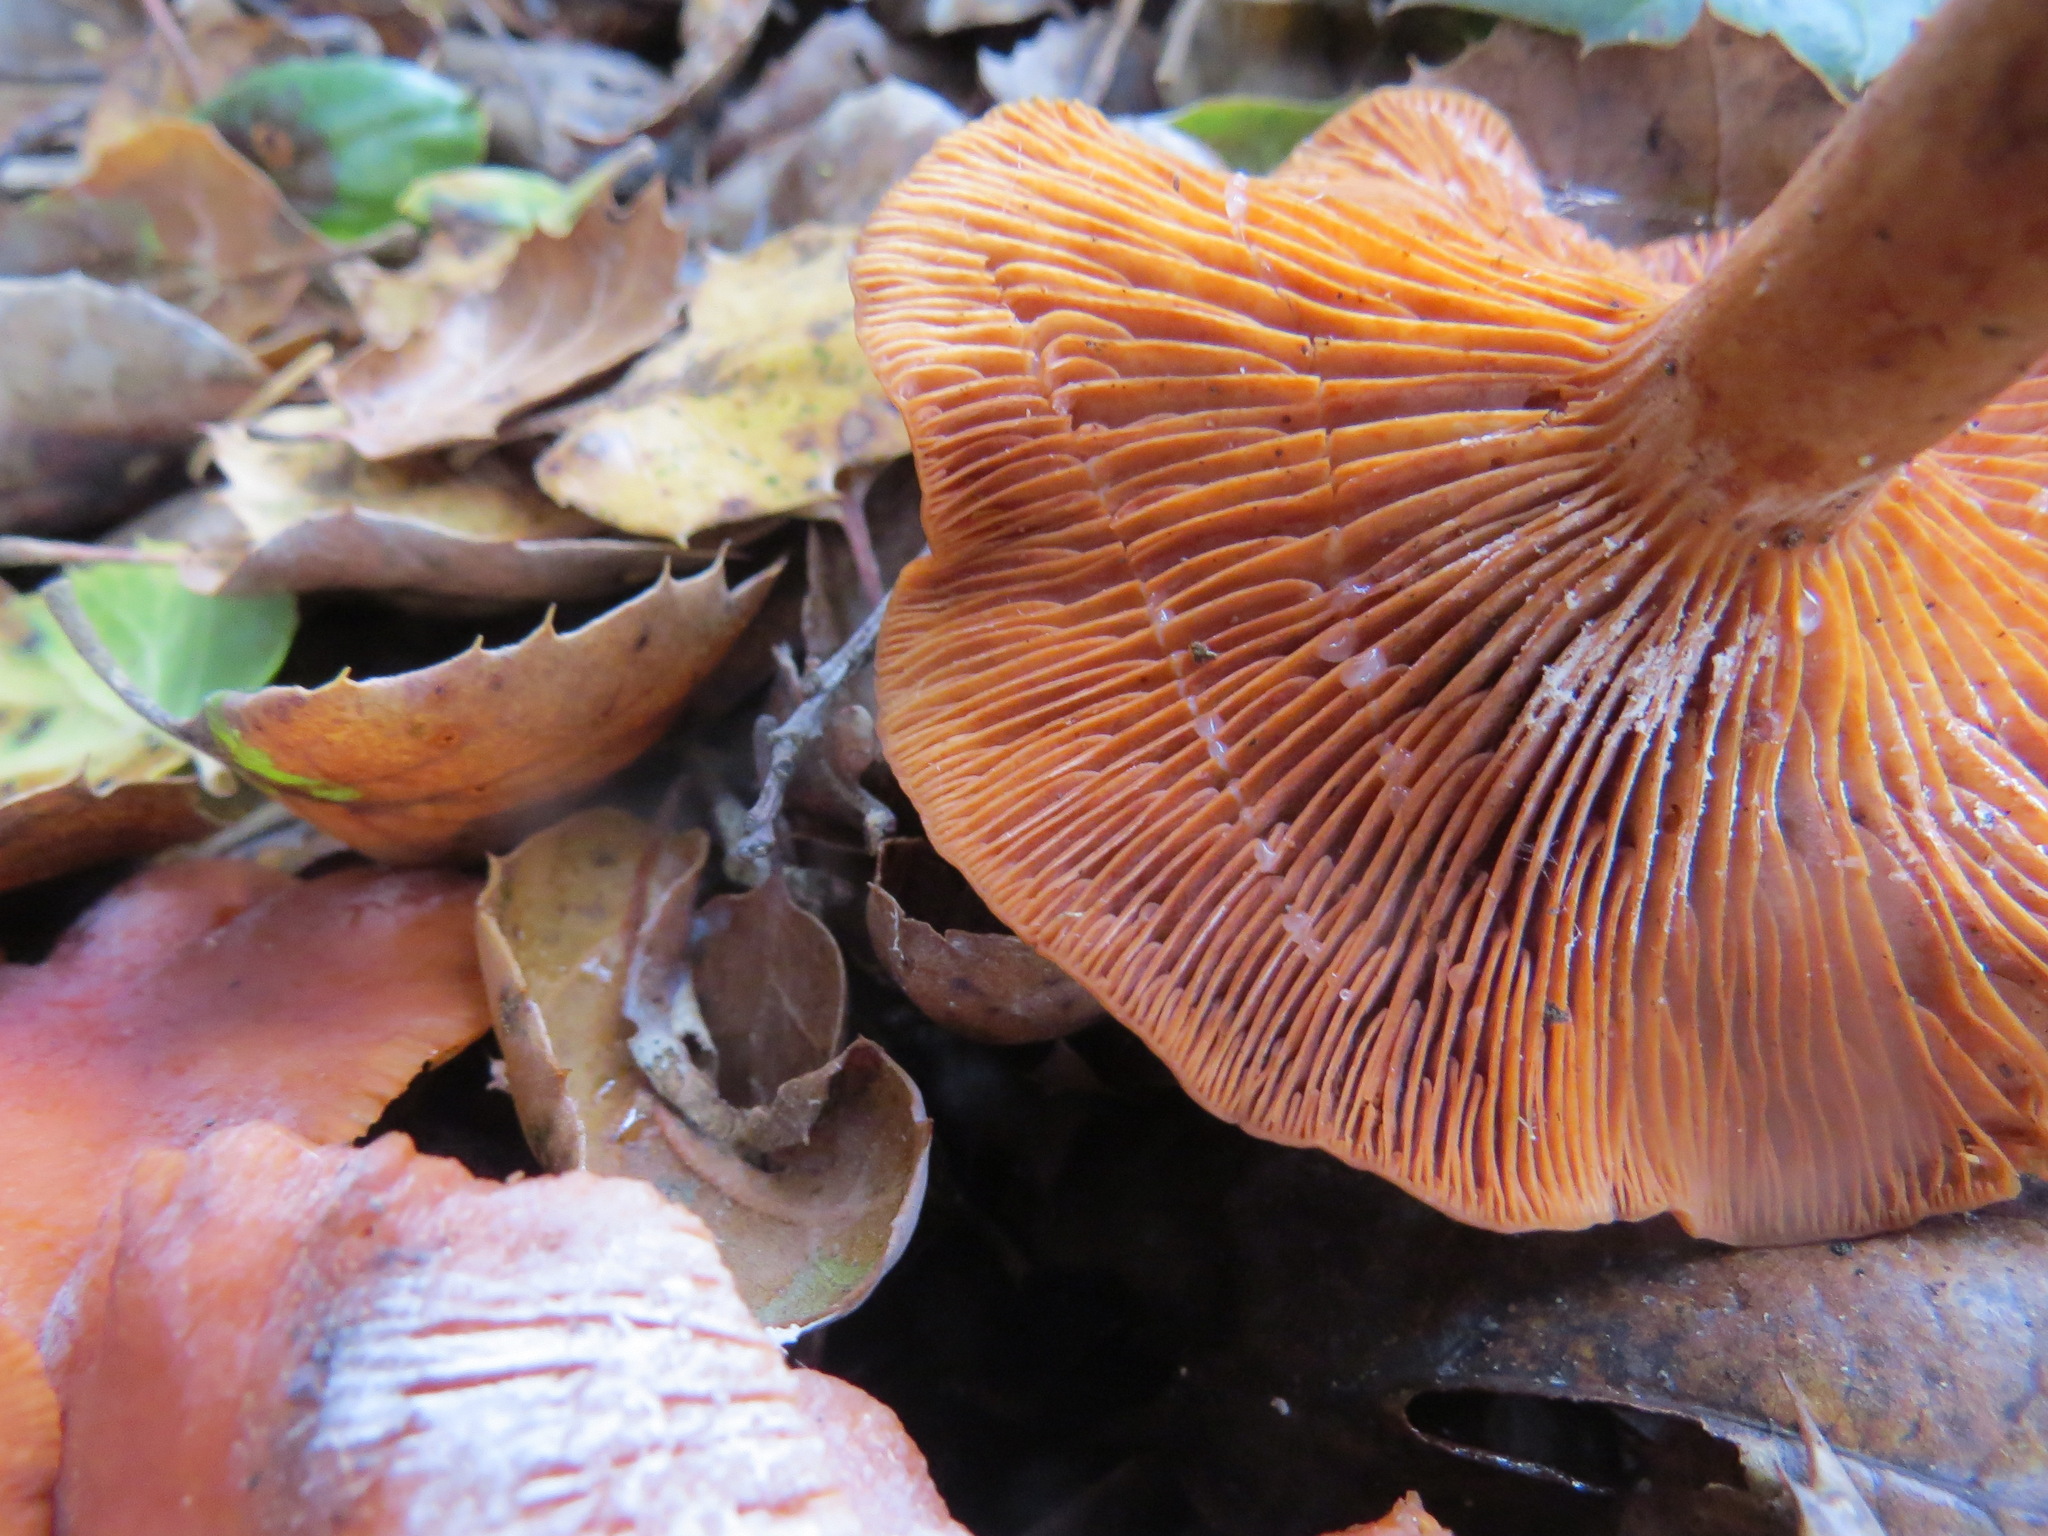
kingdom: Fungi
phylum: Basidiomycota
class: Agaricomycetes
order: Russulales
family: Russulaceae
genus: Lactarius
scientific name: Lactarius rubidus
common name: Candy cap
